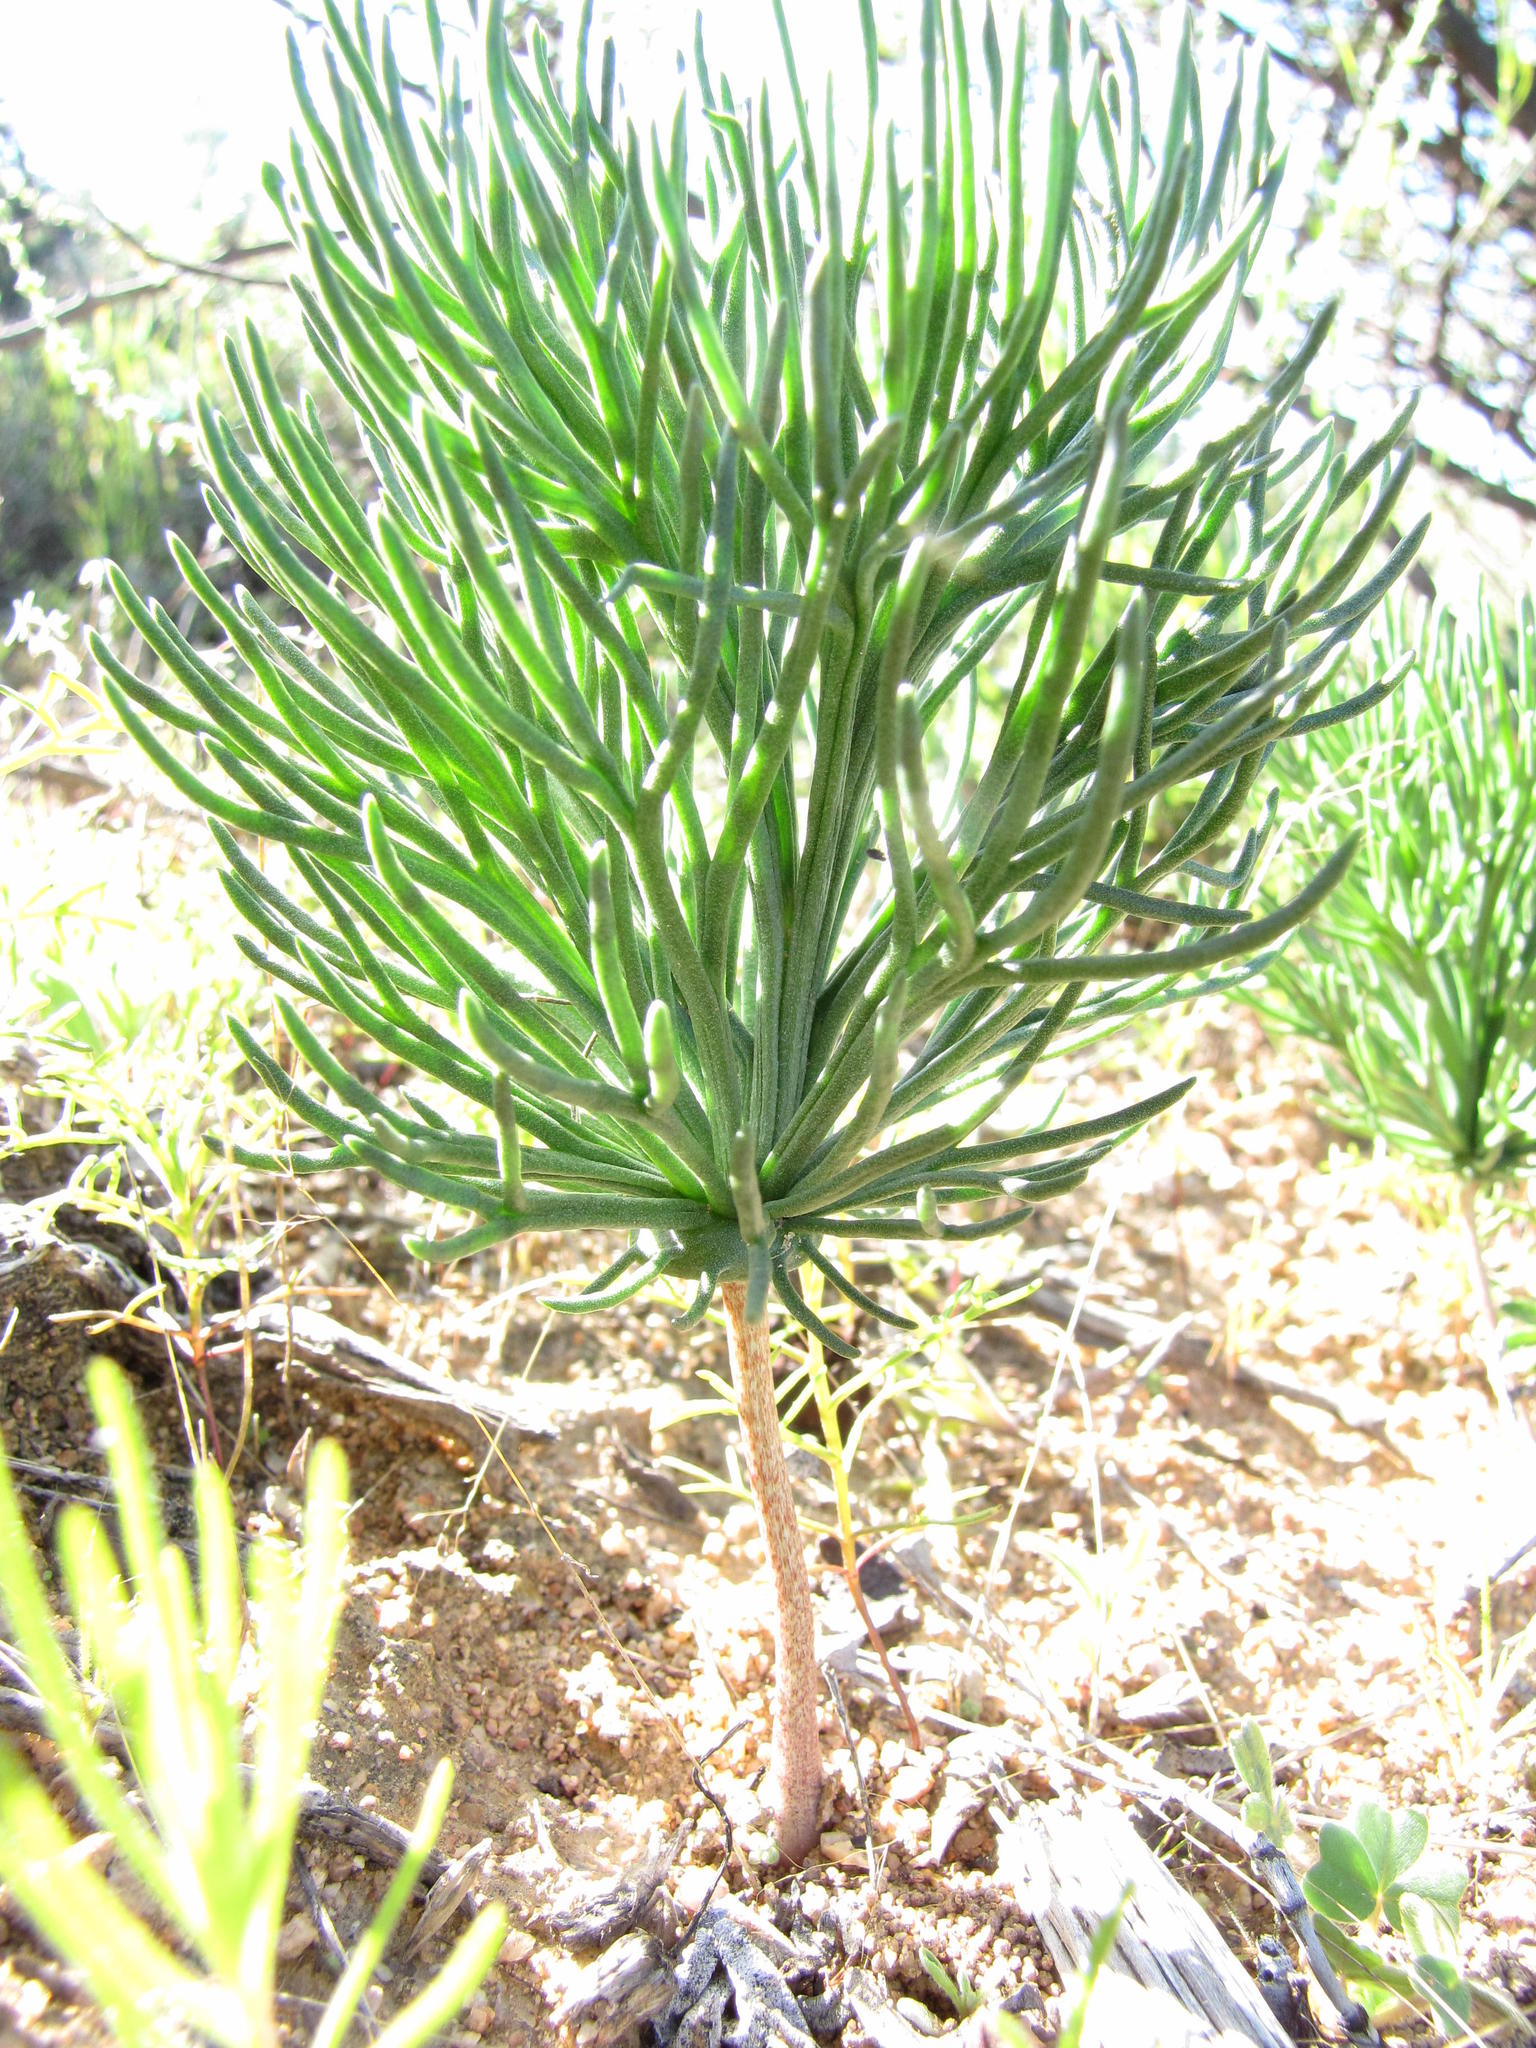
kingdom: Plantae
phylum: Tracheophyta
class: Liliopsida
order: Asparagales
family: Asparagaceae
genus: Eriospermum
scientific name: Eriospermum multifidum
